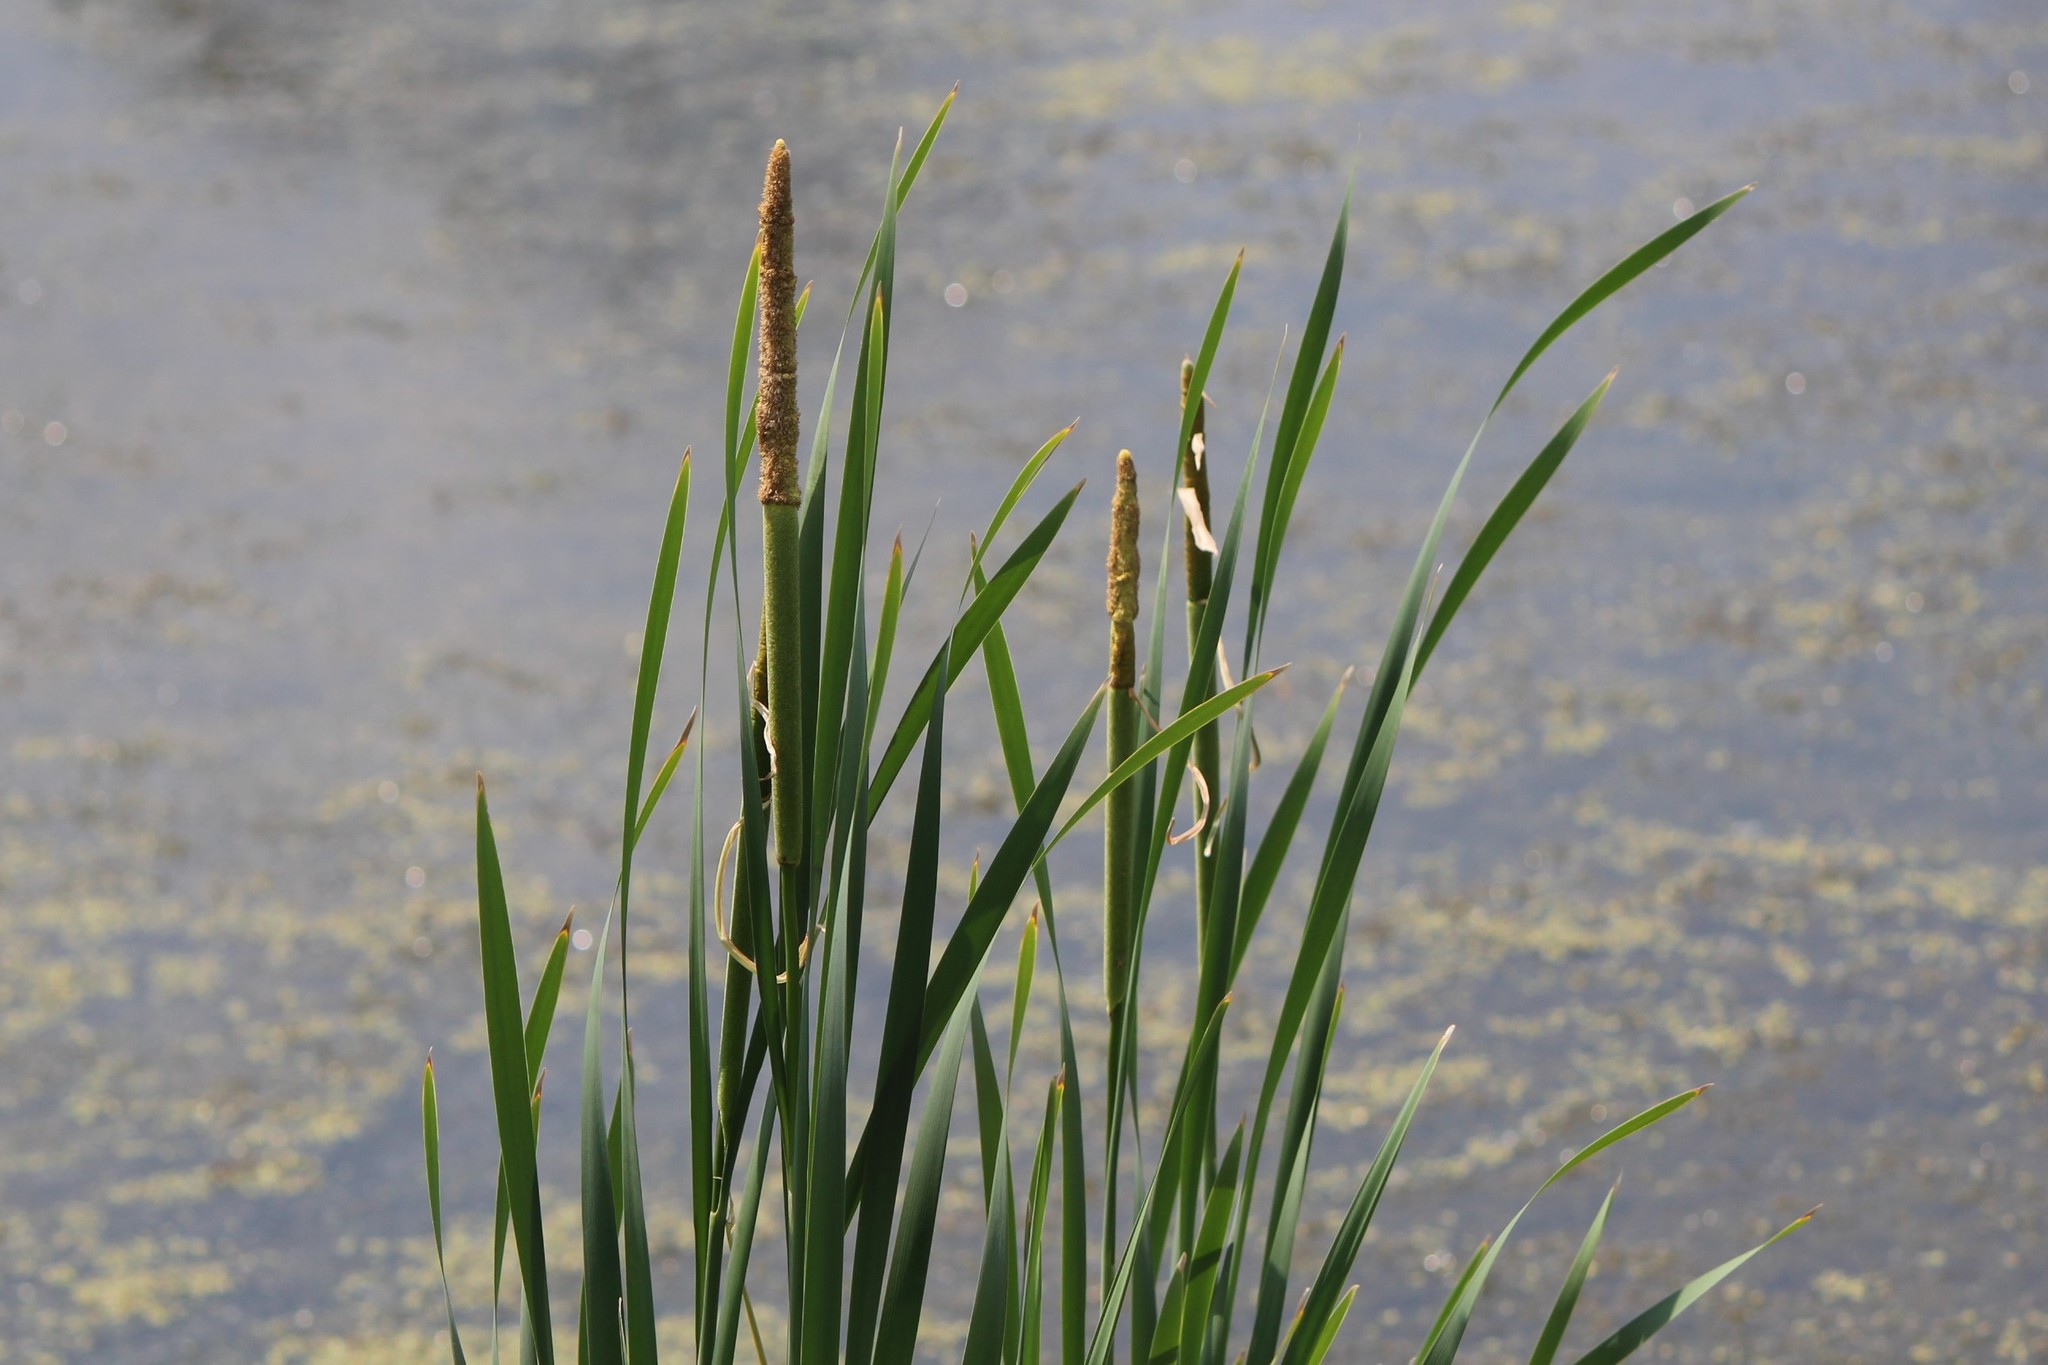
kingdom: Plantae
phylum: Tracheophyta
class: Liliopsida
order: Poales
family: Typhaceae
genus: Typha
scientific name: Typha latifolia
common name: Broadleaf cattail
